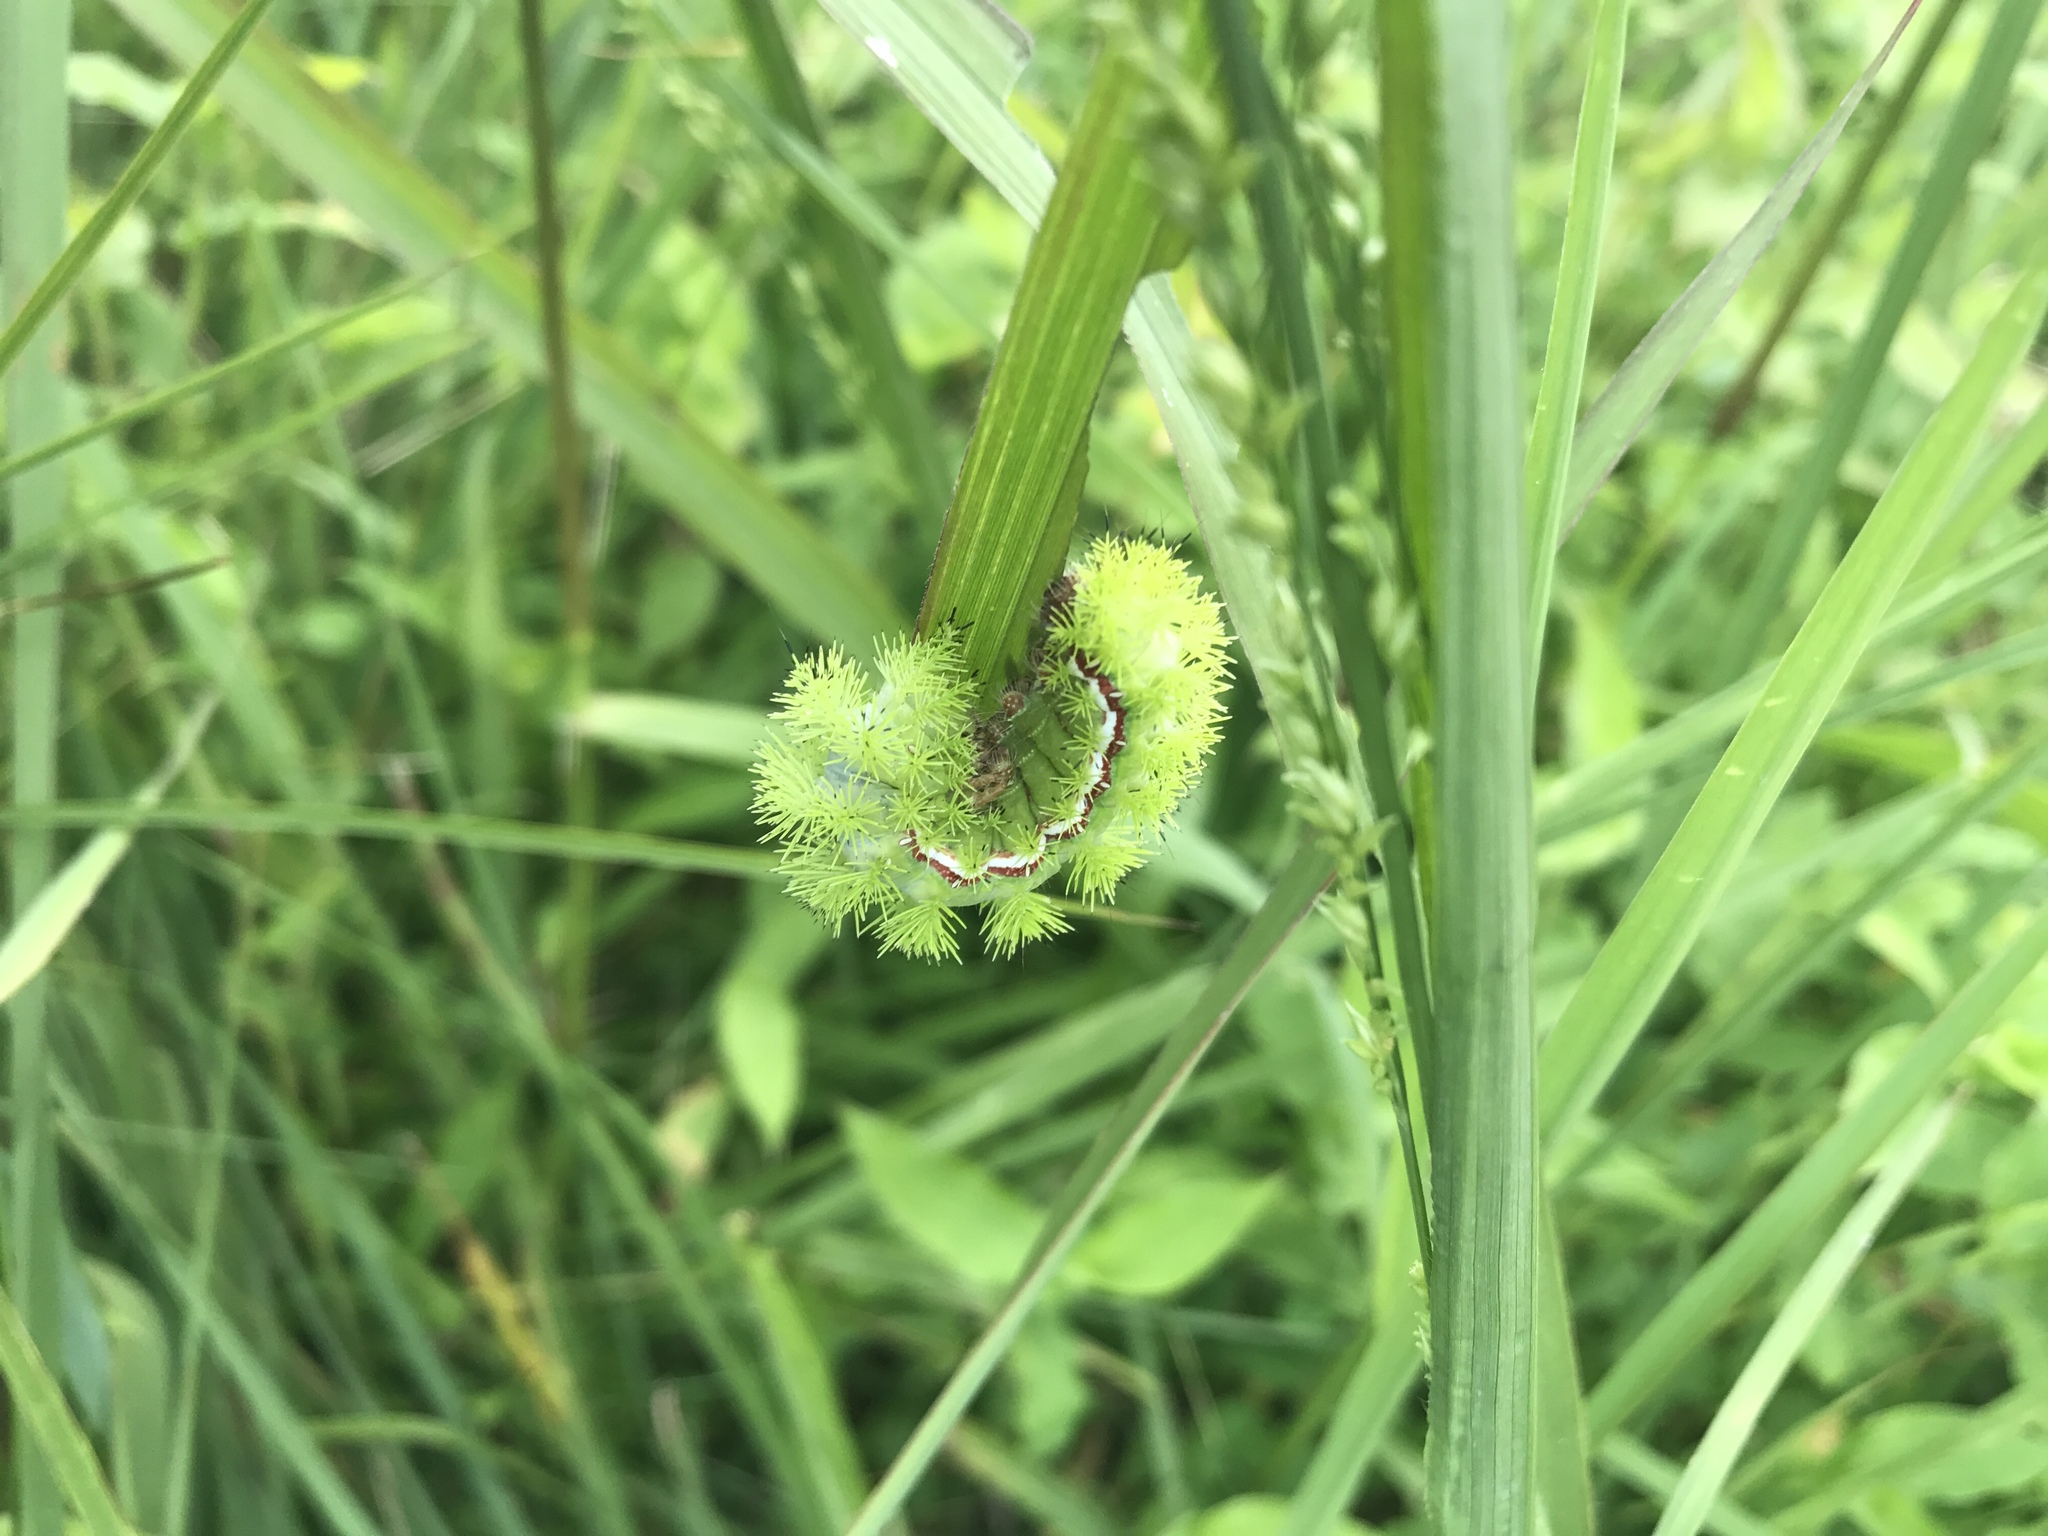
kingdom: Animalia
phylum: Arthropoda
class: Insecta
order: Lepidoptera
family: Saturniidae
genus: Automeris
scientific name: Automeris io
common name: Io moth
